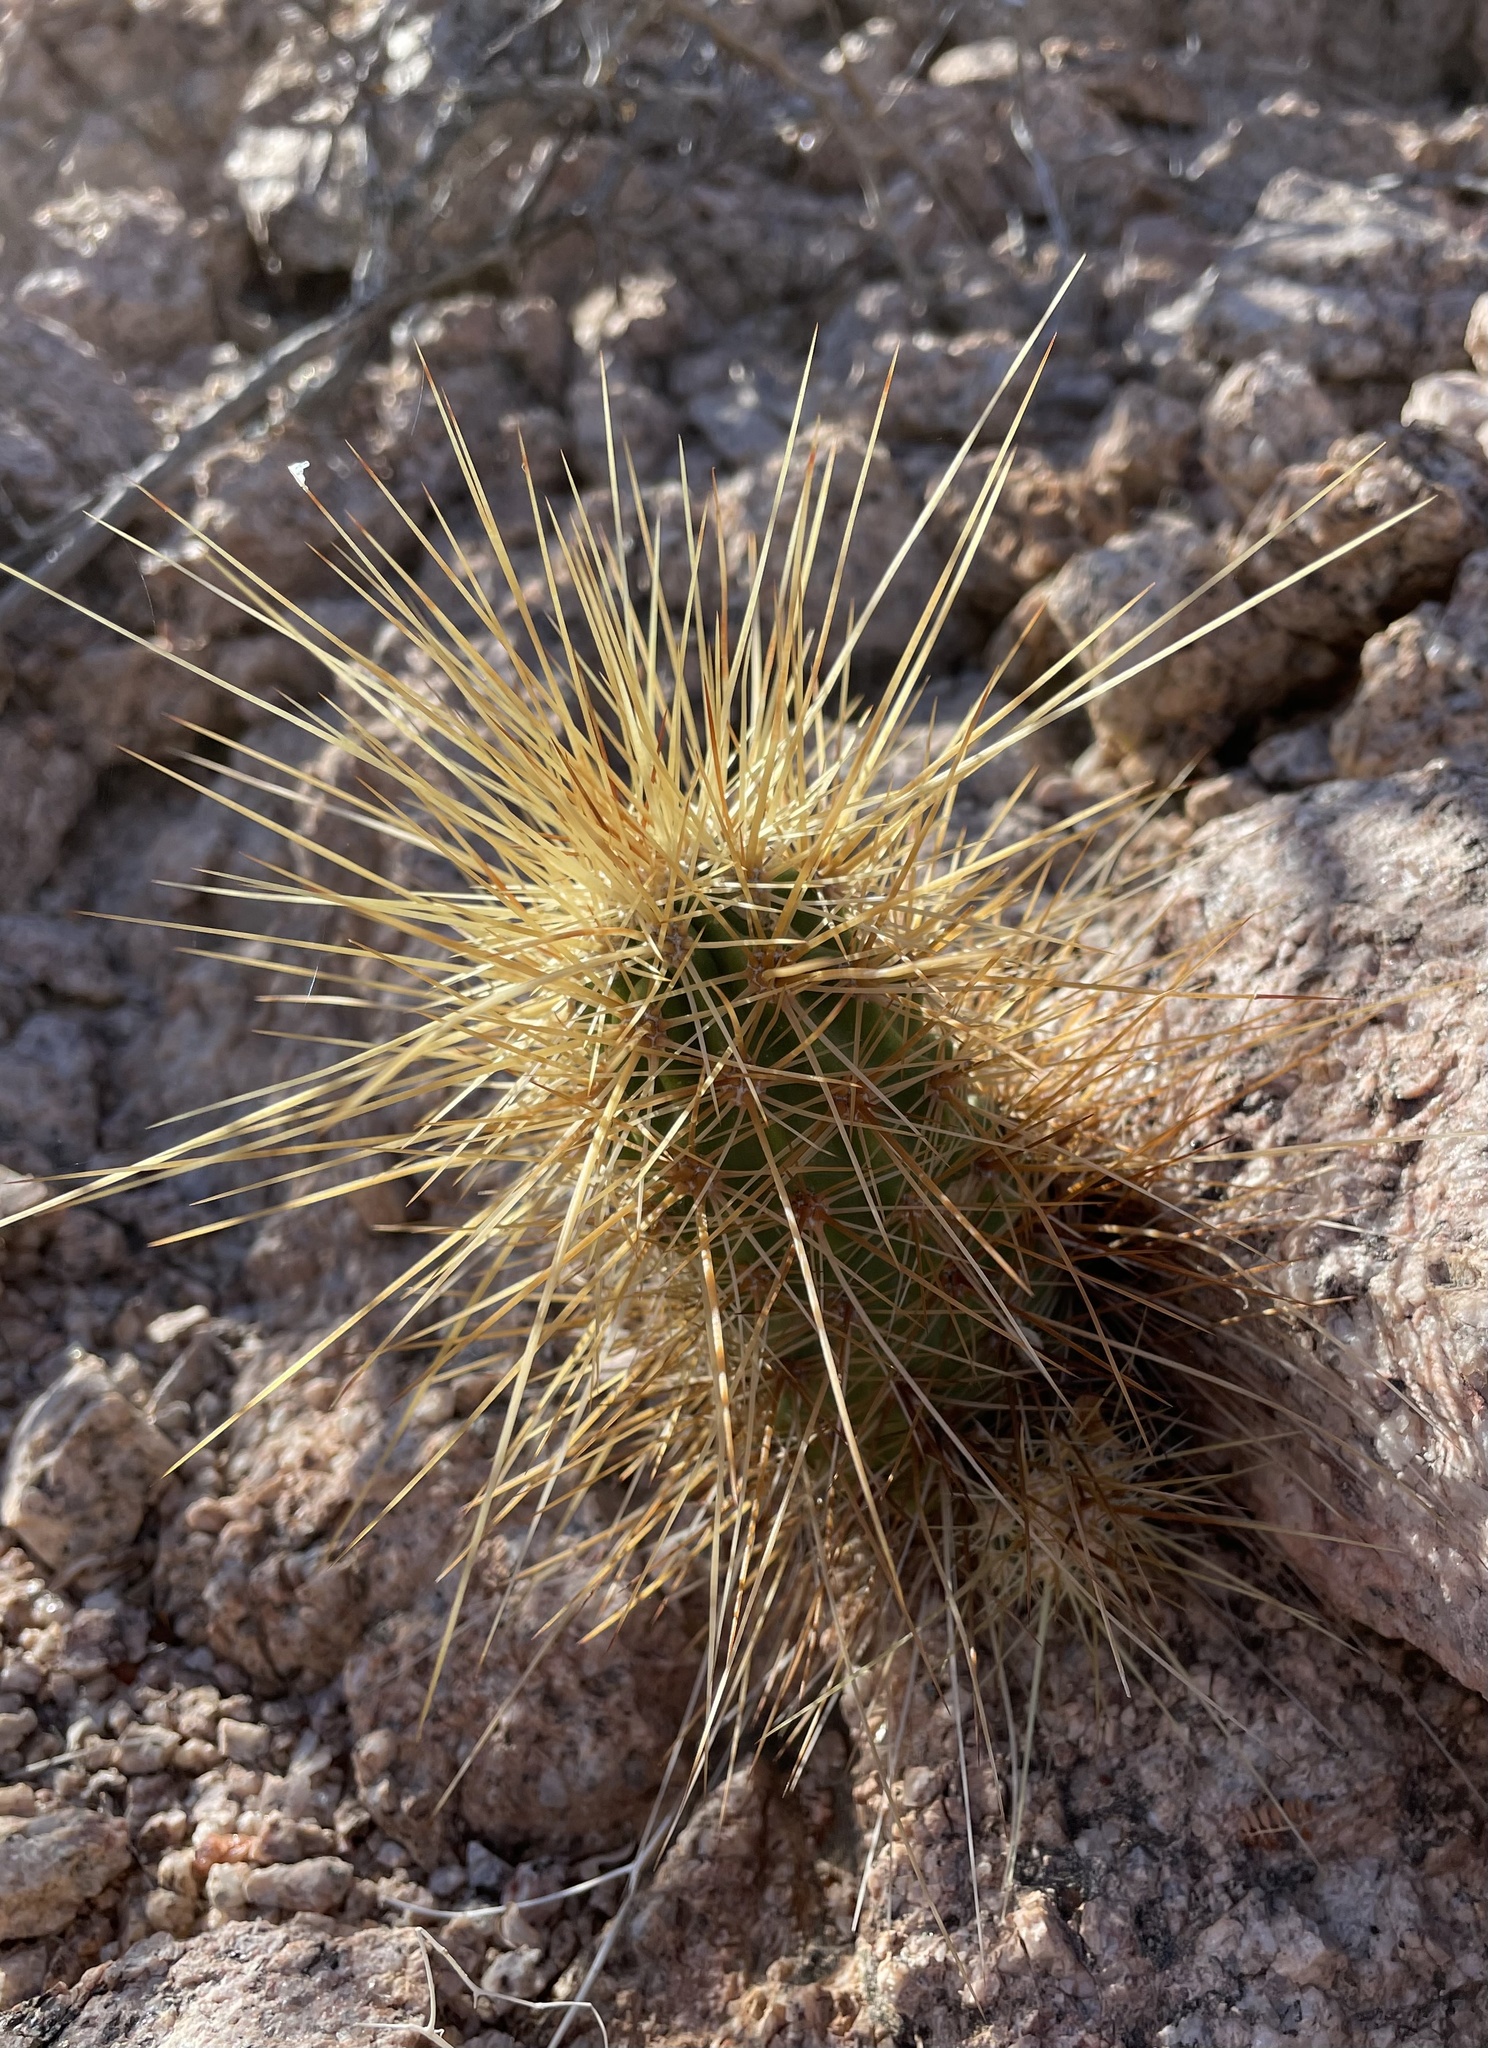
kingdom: Plantae
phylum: Tracheophyta
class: Magnoliopsida
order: Caryophyllales
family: Cactaceae
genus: Echinocereus
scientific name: Echinocereus nicholii
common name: Nichol's hedgehog cactus
